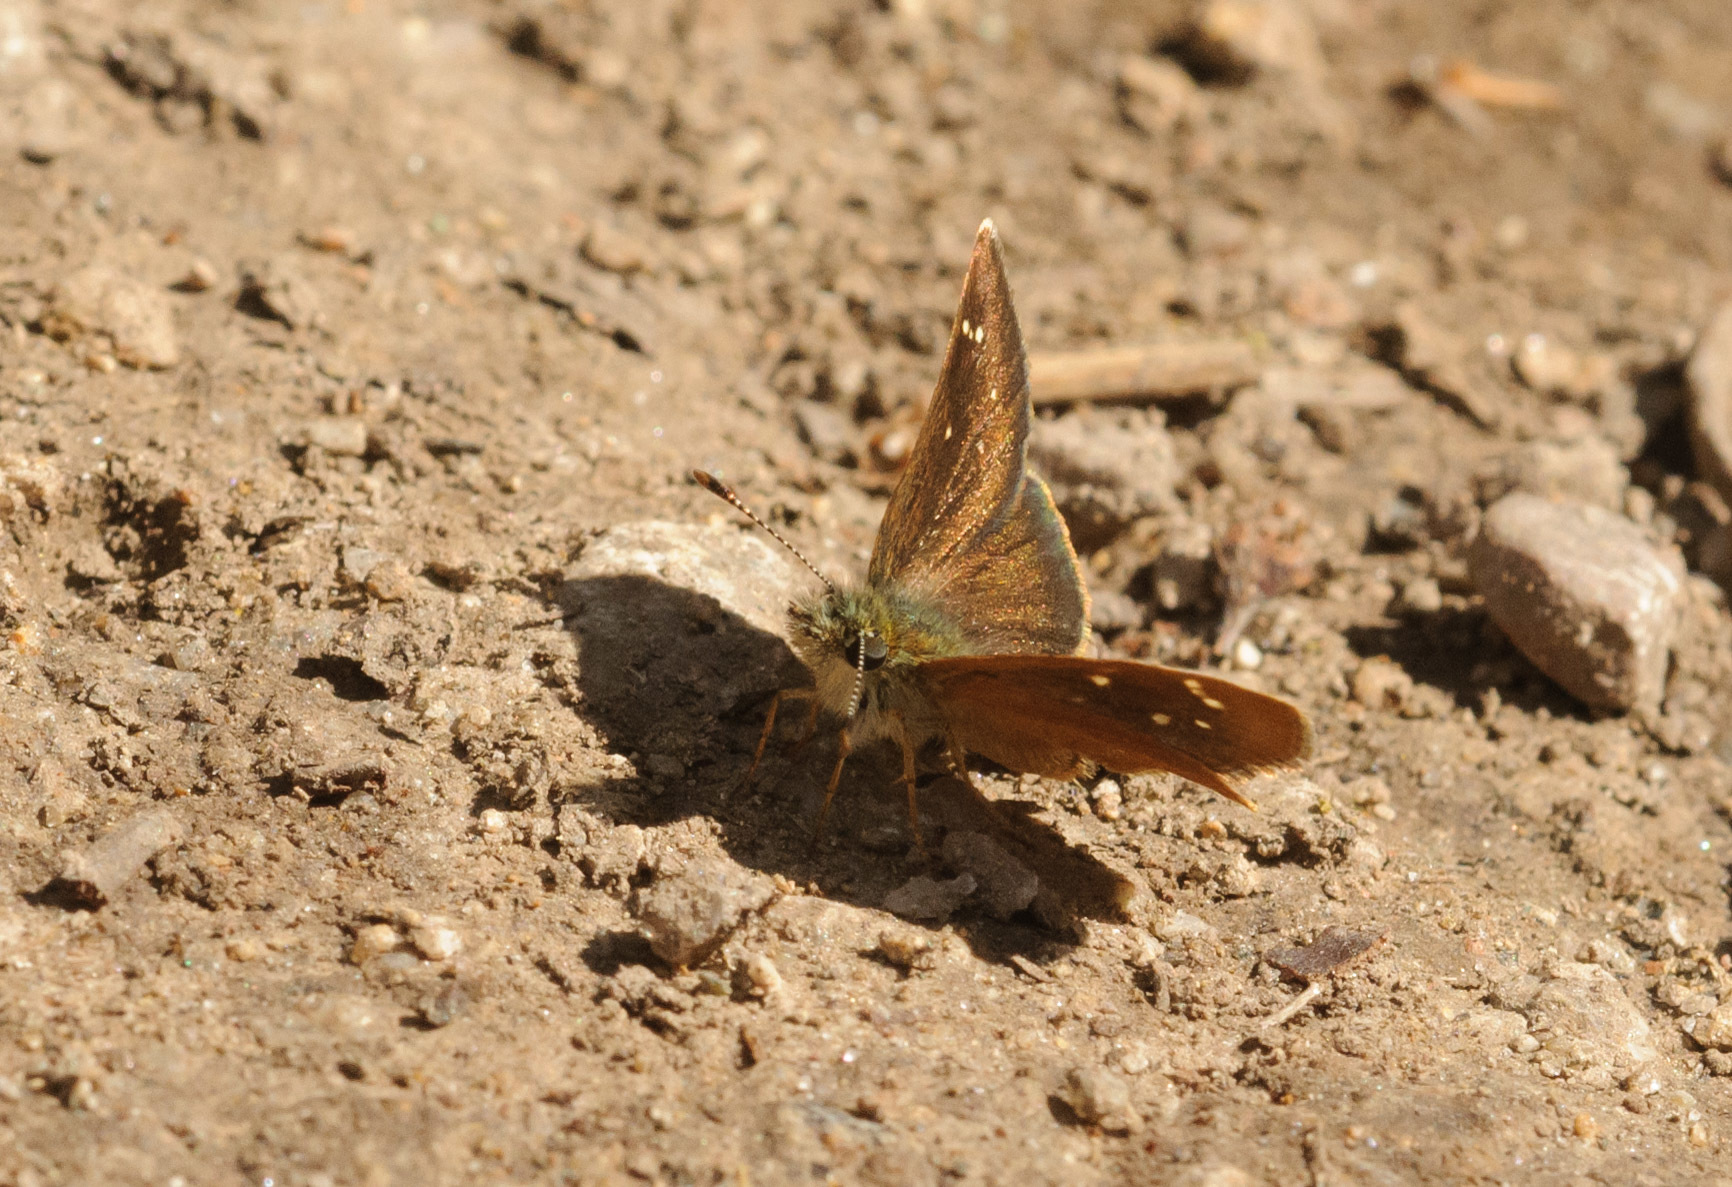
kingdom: Animalia
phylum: Arthropoda
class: Insecta
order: Lepidoptera
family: Hesperiidae
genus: Piruna
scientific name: Piruna pirus
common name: Russet skipperling
